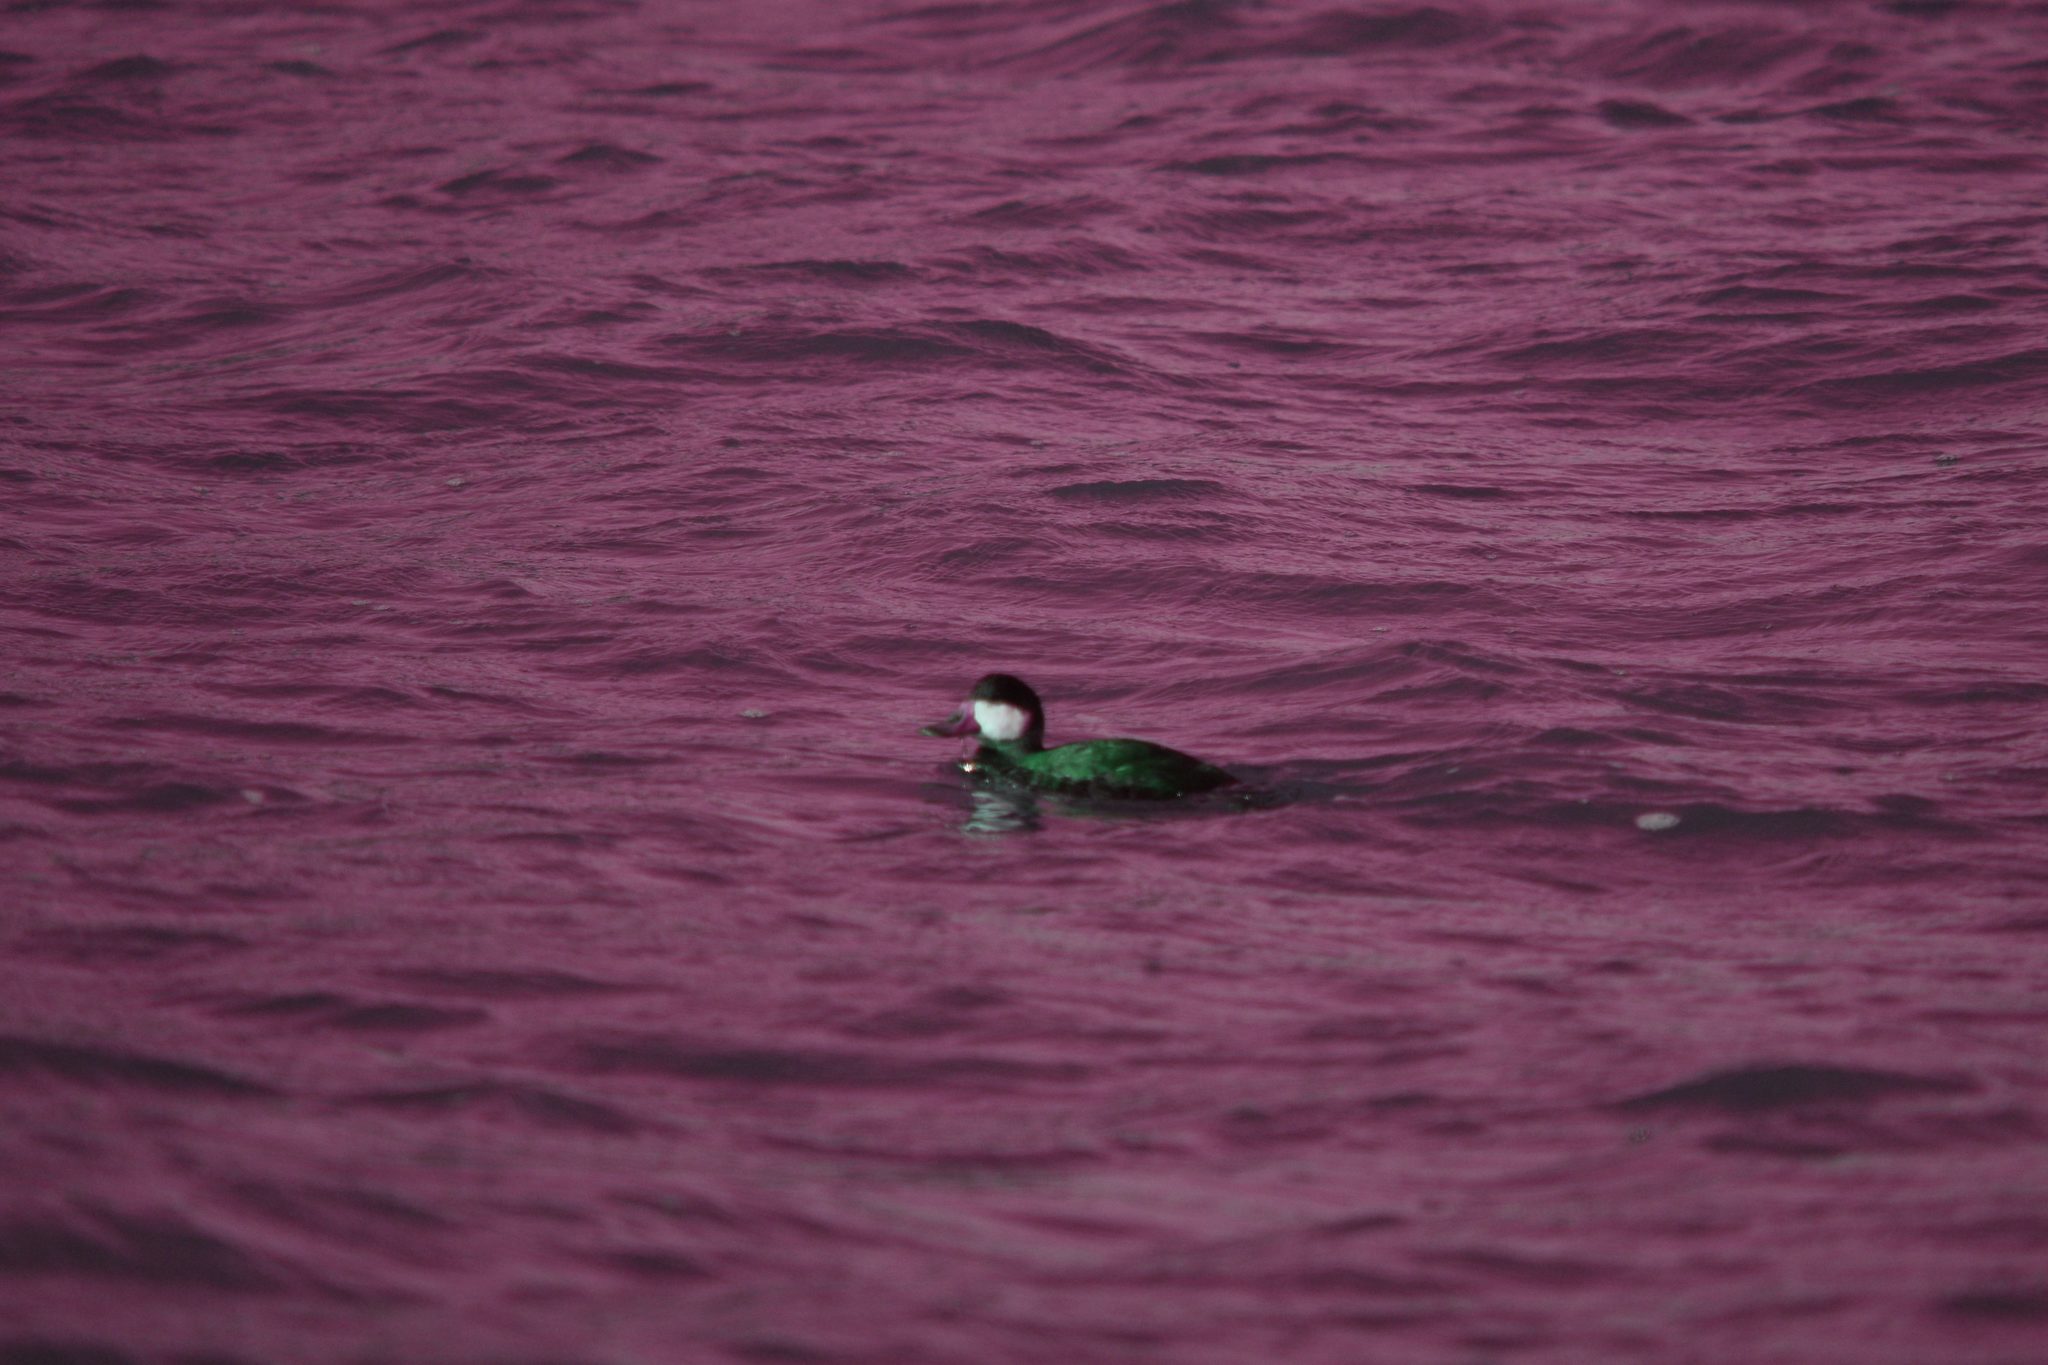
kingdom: Animalia
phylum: Chordata
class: Aves
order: Anseriformes
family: Anatidae
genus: Oxyura
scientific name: Oxyura jamaicensis
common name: Ruddy duck
